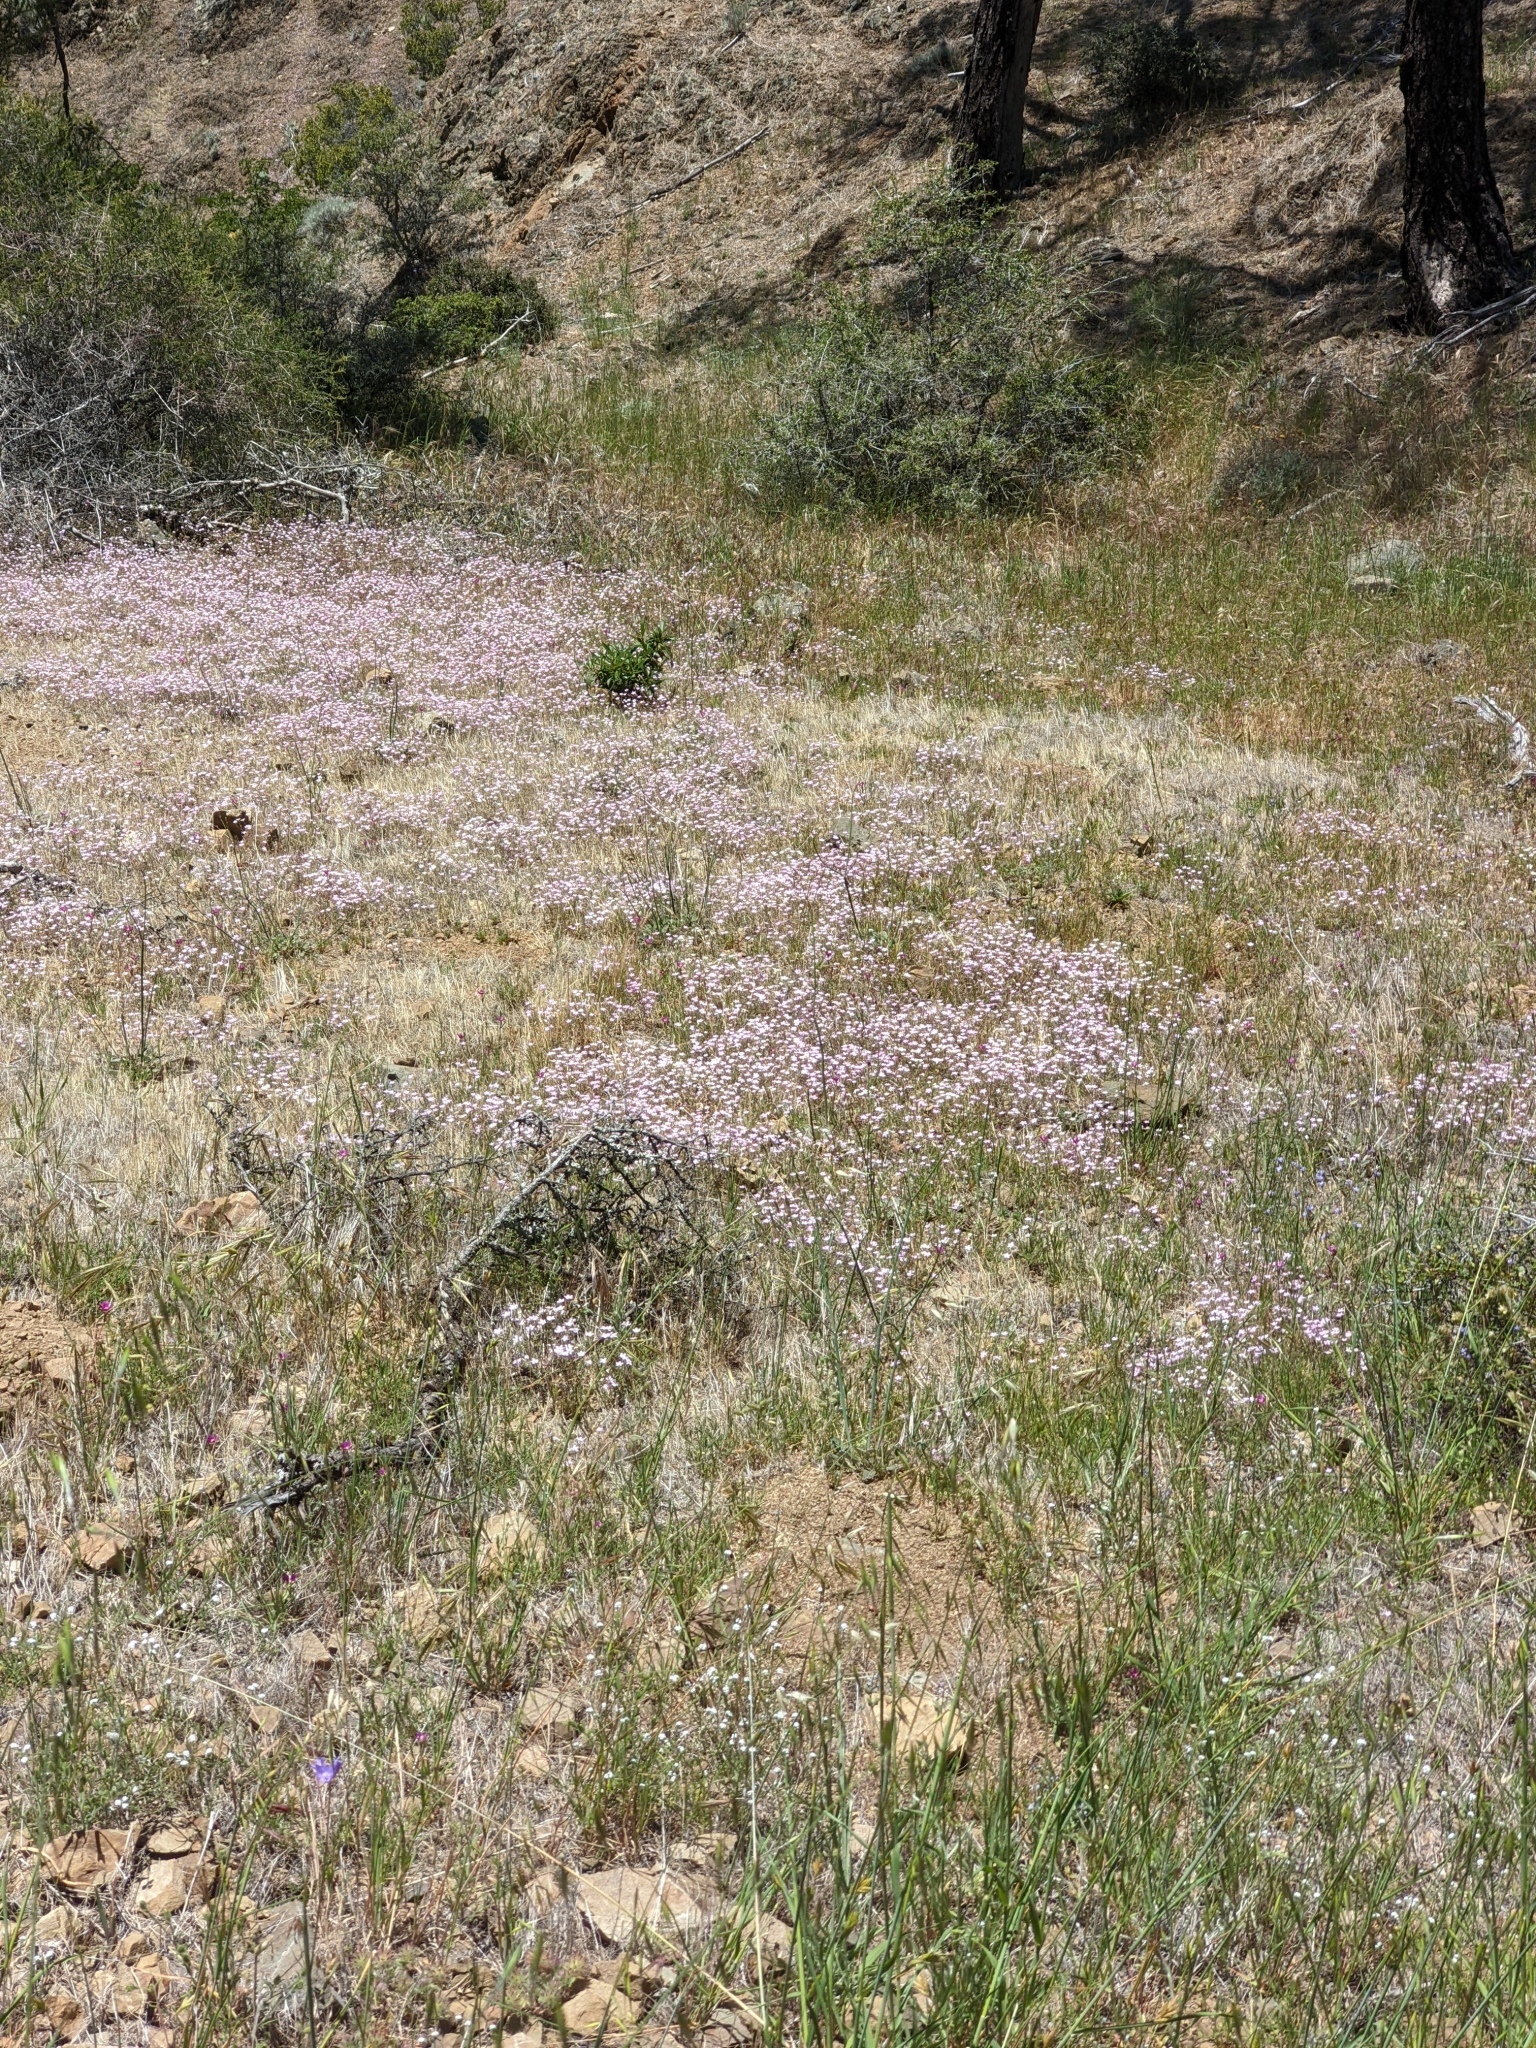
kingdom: Plantae
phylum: Tracheophyta
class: Magnoliopsida
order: Ericales
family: Polemoniaceae
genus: Leptosiphon
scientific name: Leptosiphon ambiguus
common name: Serpentine linanthus
